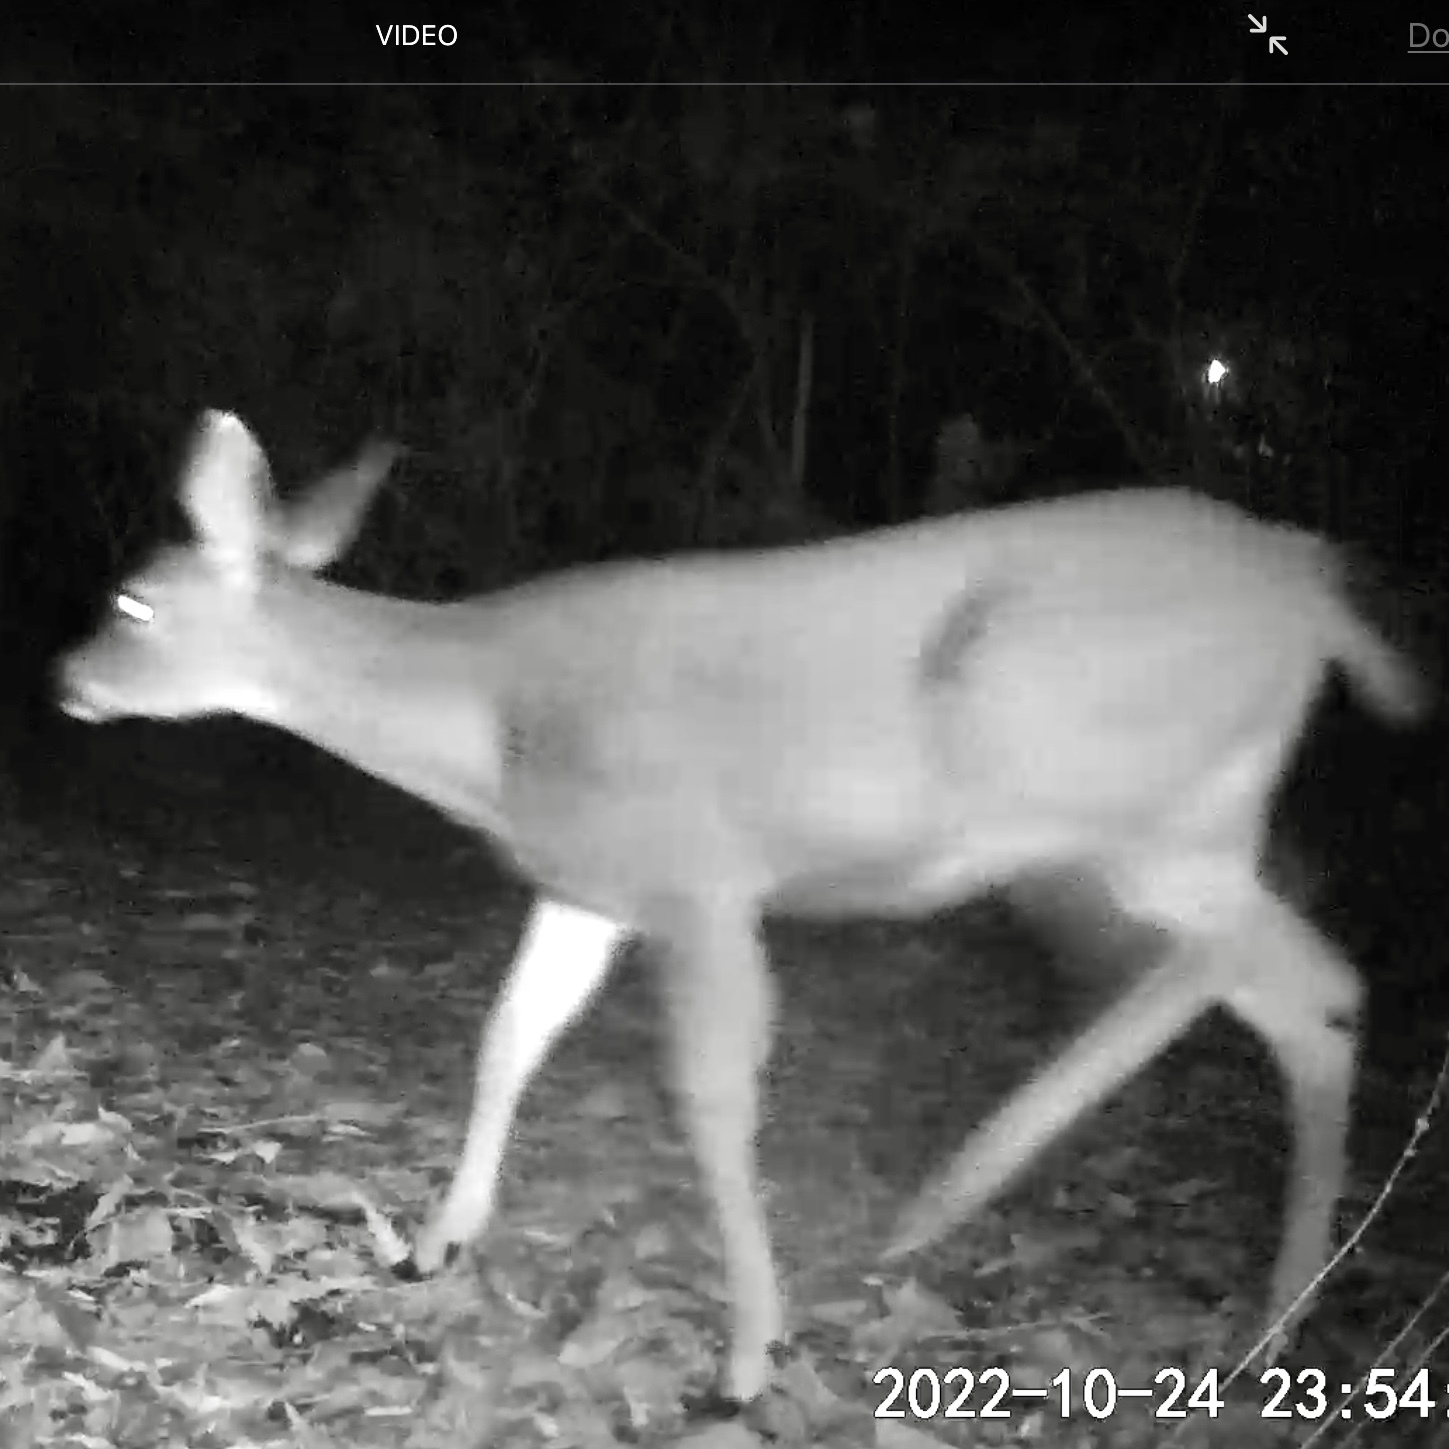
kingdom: Animalia
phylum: Chordata
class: Mammalia
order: Artiodactyla
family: Cervidae
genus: Odocoileus
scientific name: Odocoileus hemionus
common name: Mule deer
